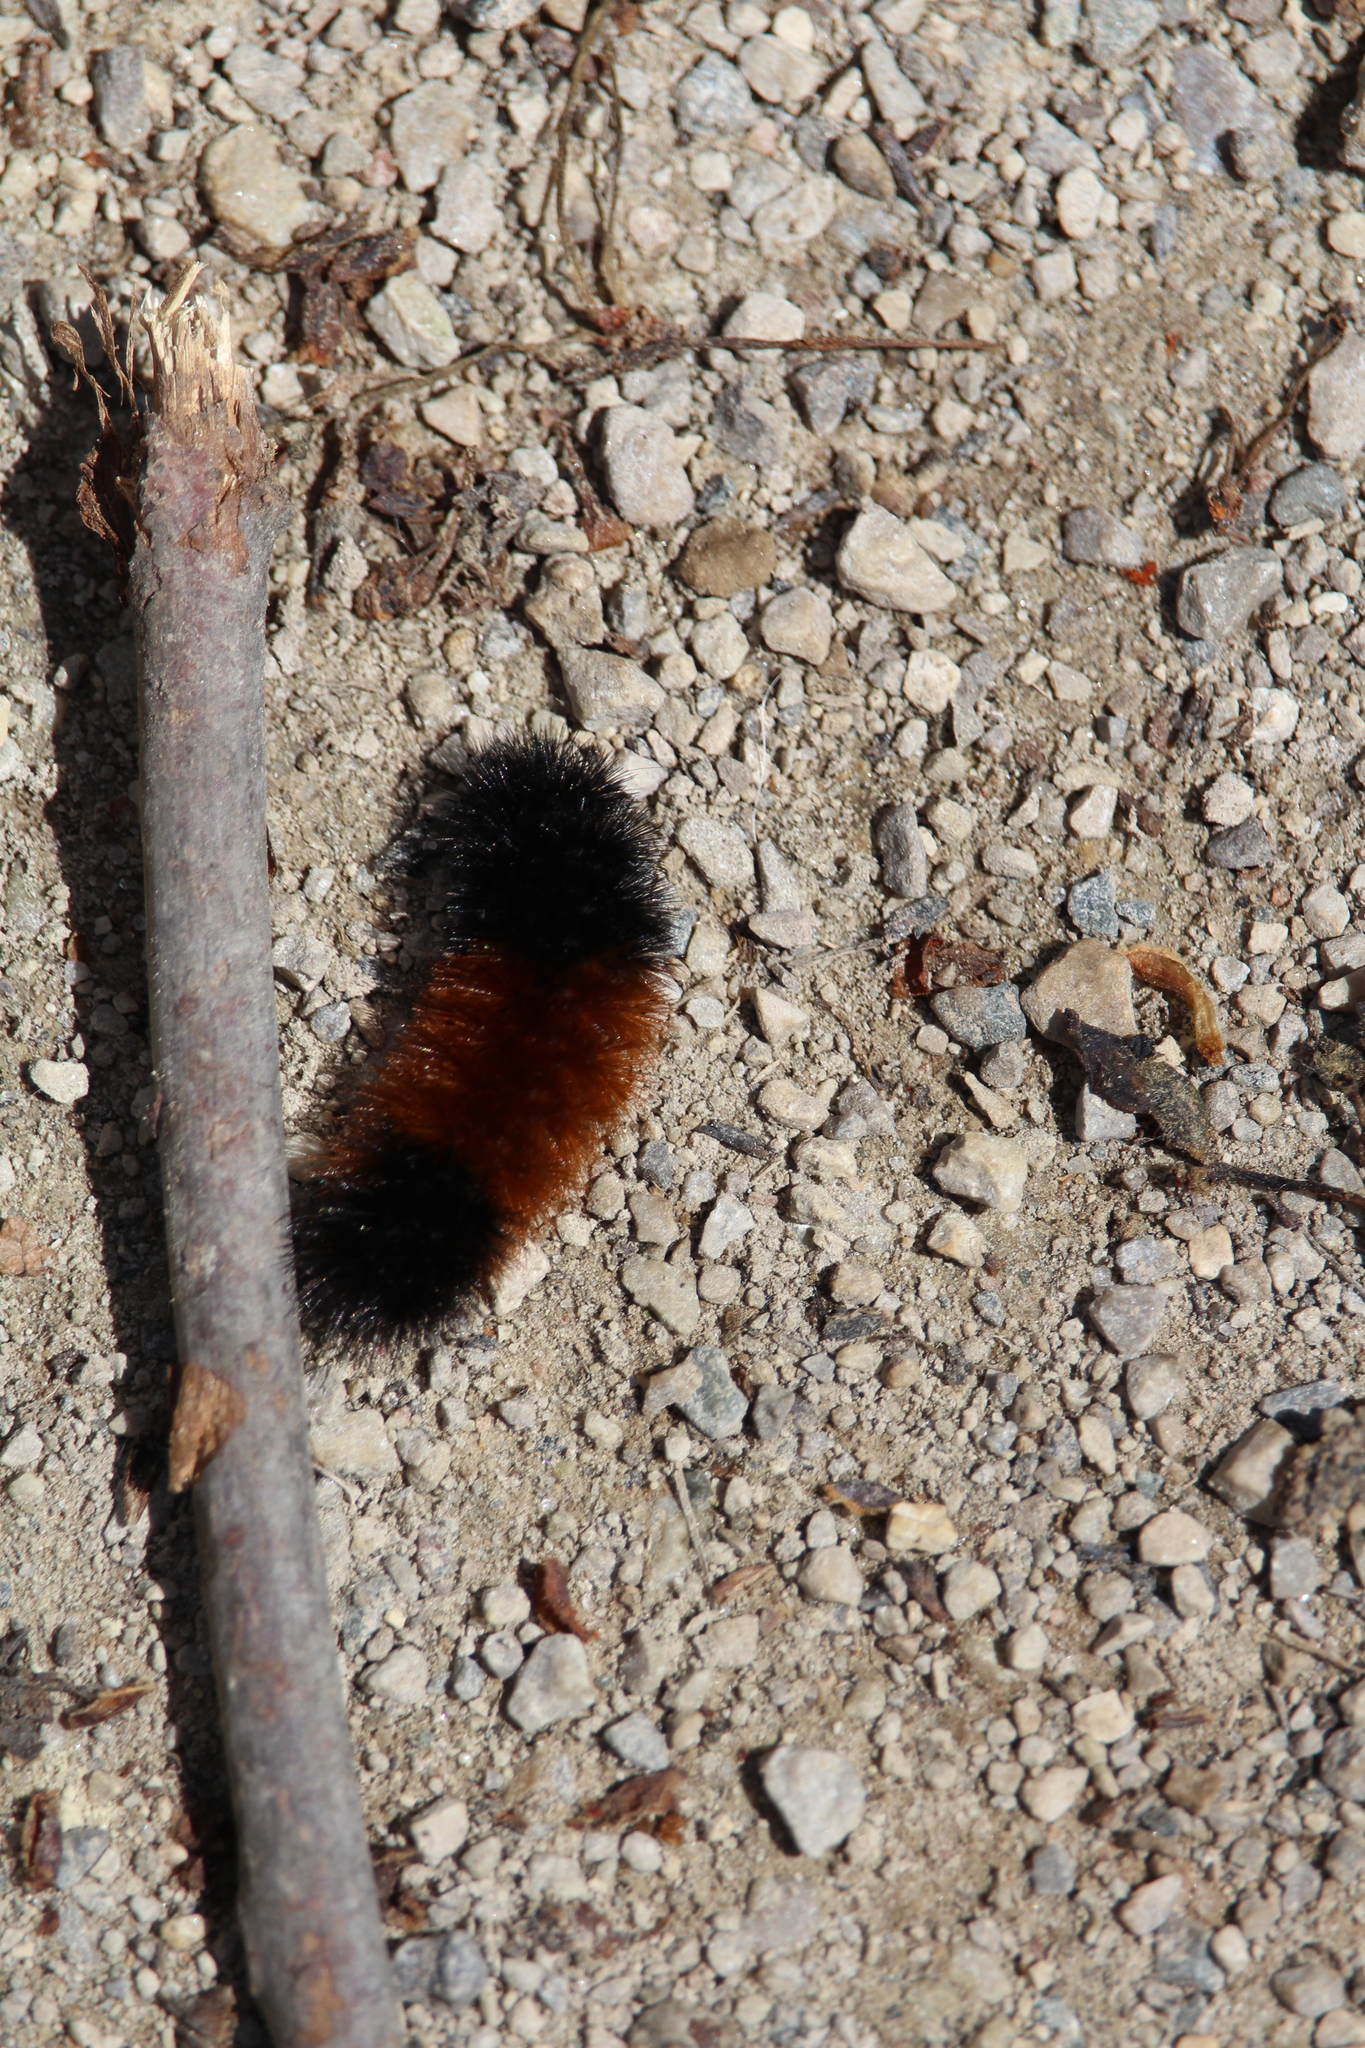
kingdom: Animalia
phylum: Arthropoda
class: Insecta
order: Lepidoptera
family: Erebidae
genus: Pyrrharctia
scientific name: Pyrrharctia isabella
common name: Isabella tiger moth
